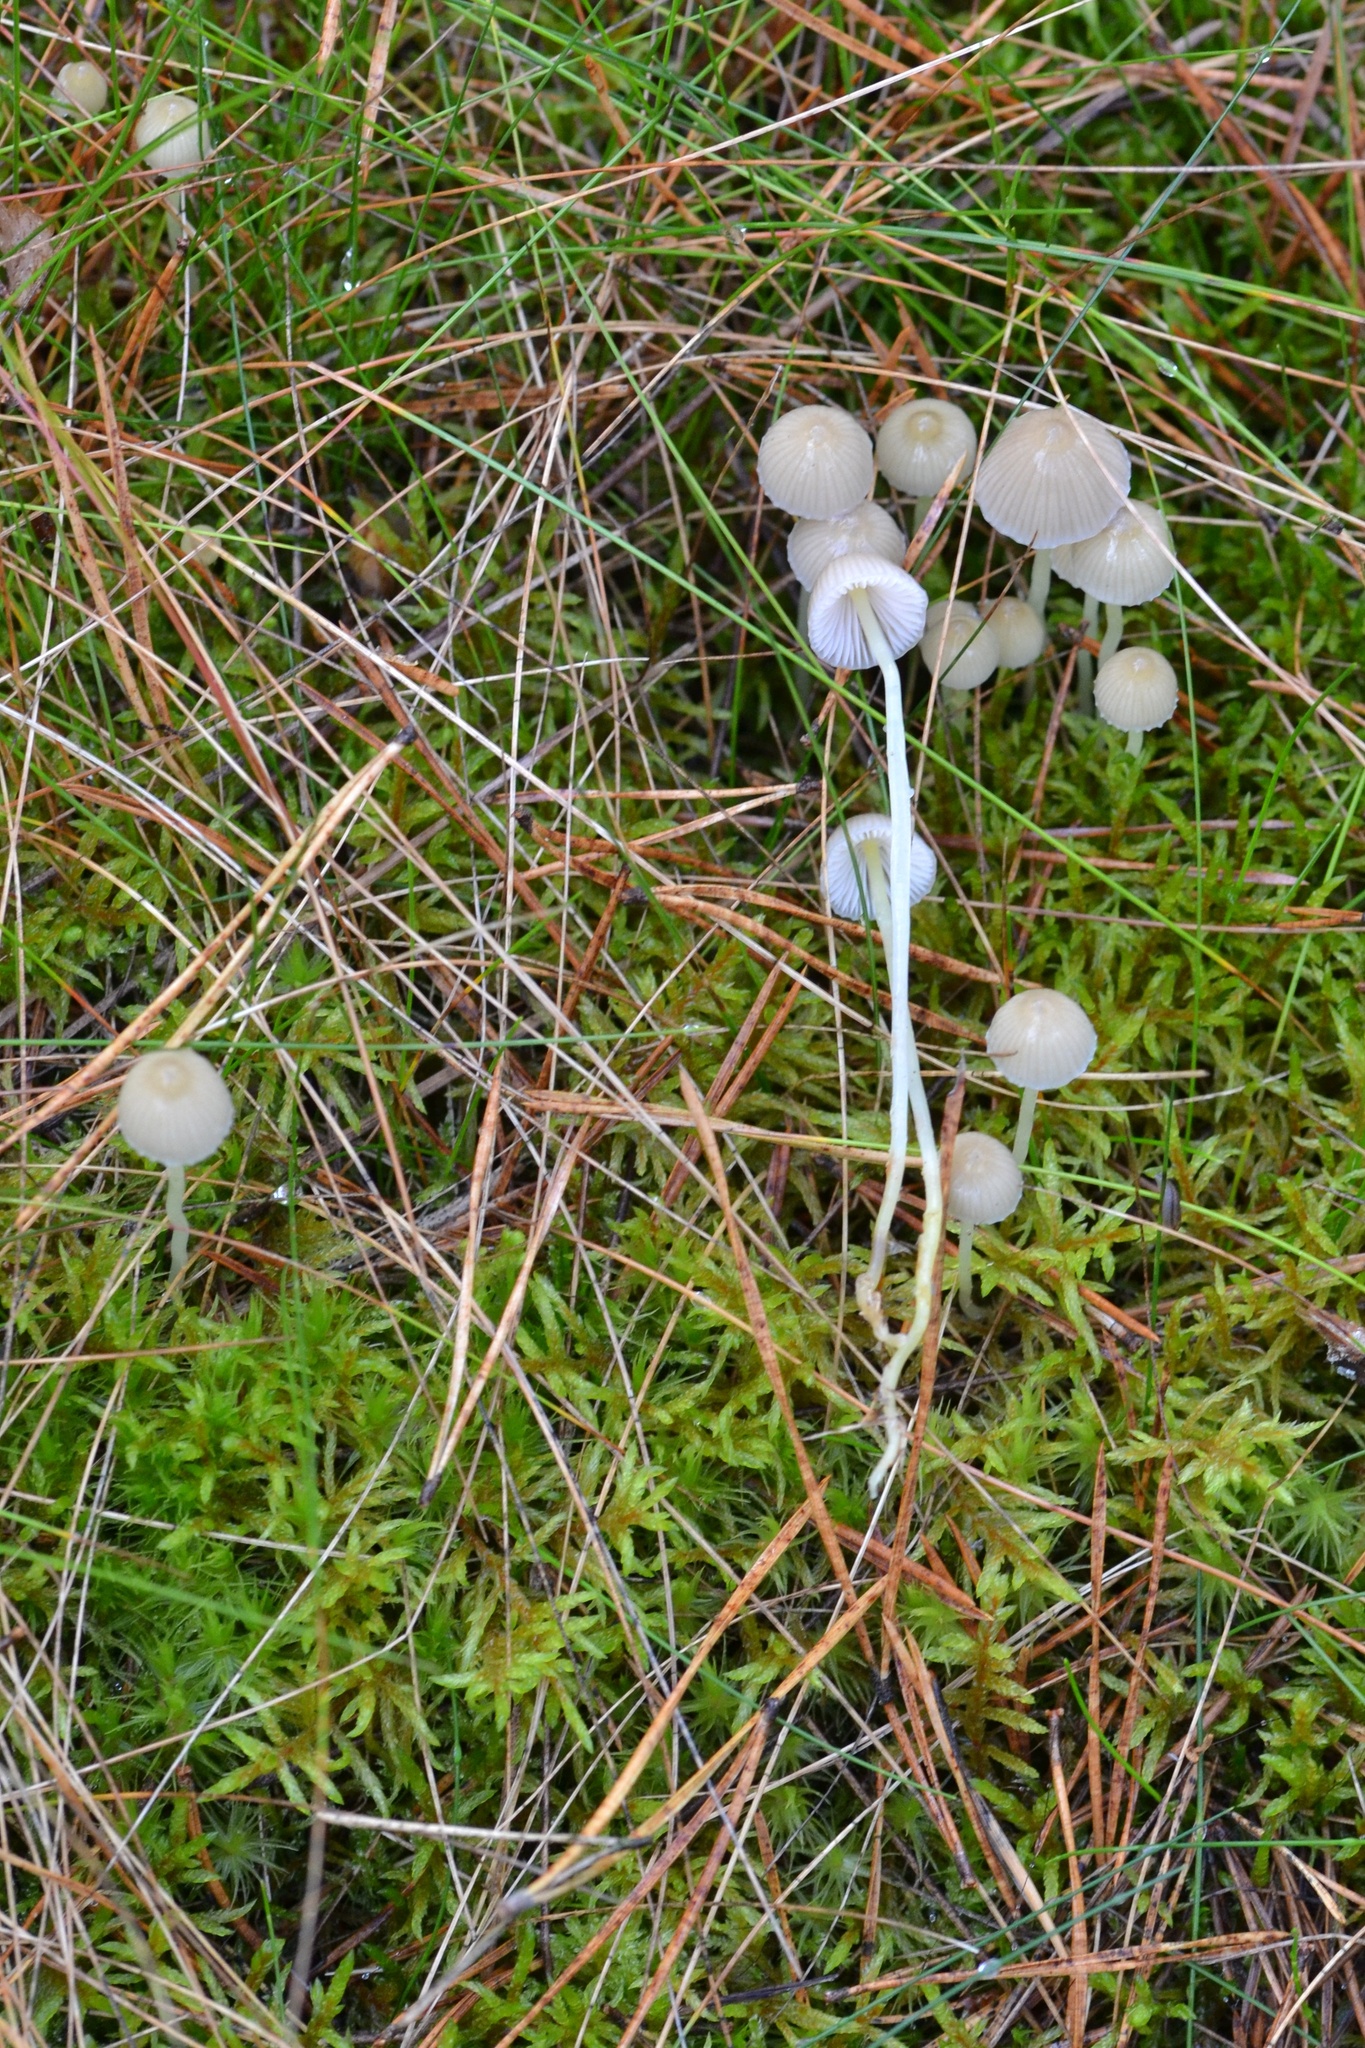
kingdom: Fungi
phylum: Basidiomycota
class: Agaricomycetes
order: Agaricales
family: Mycenaceae
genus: Mycena
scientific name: Mycena epipterygia
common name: Yellowleg bonnet
